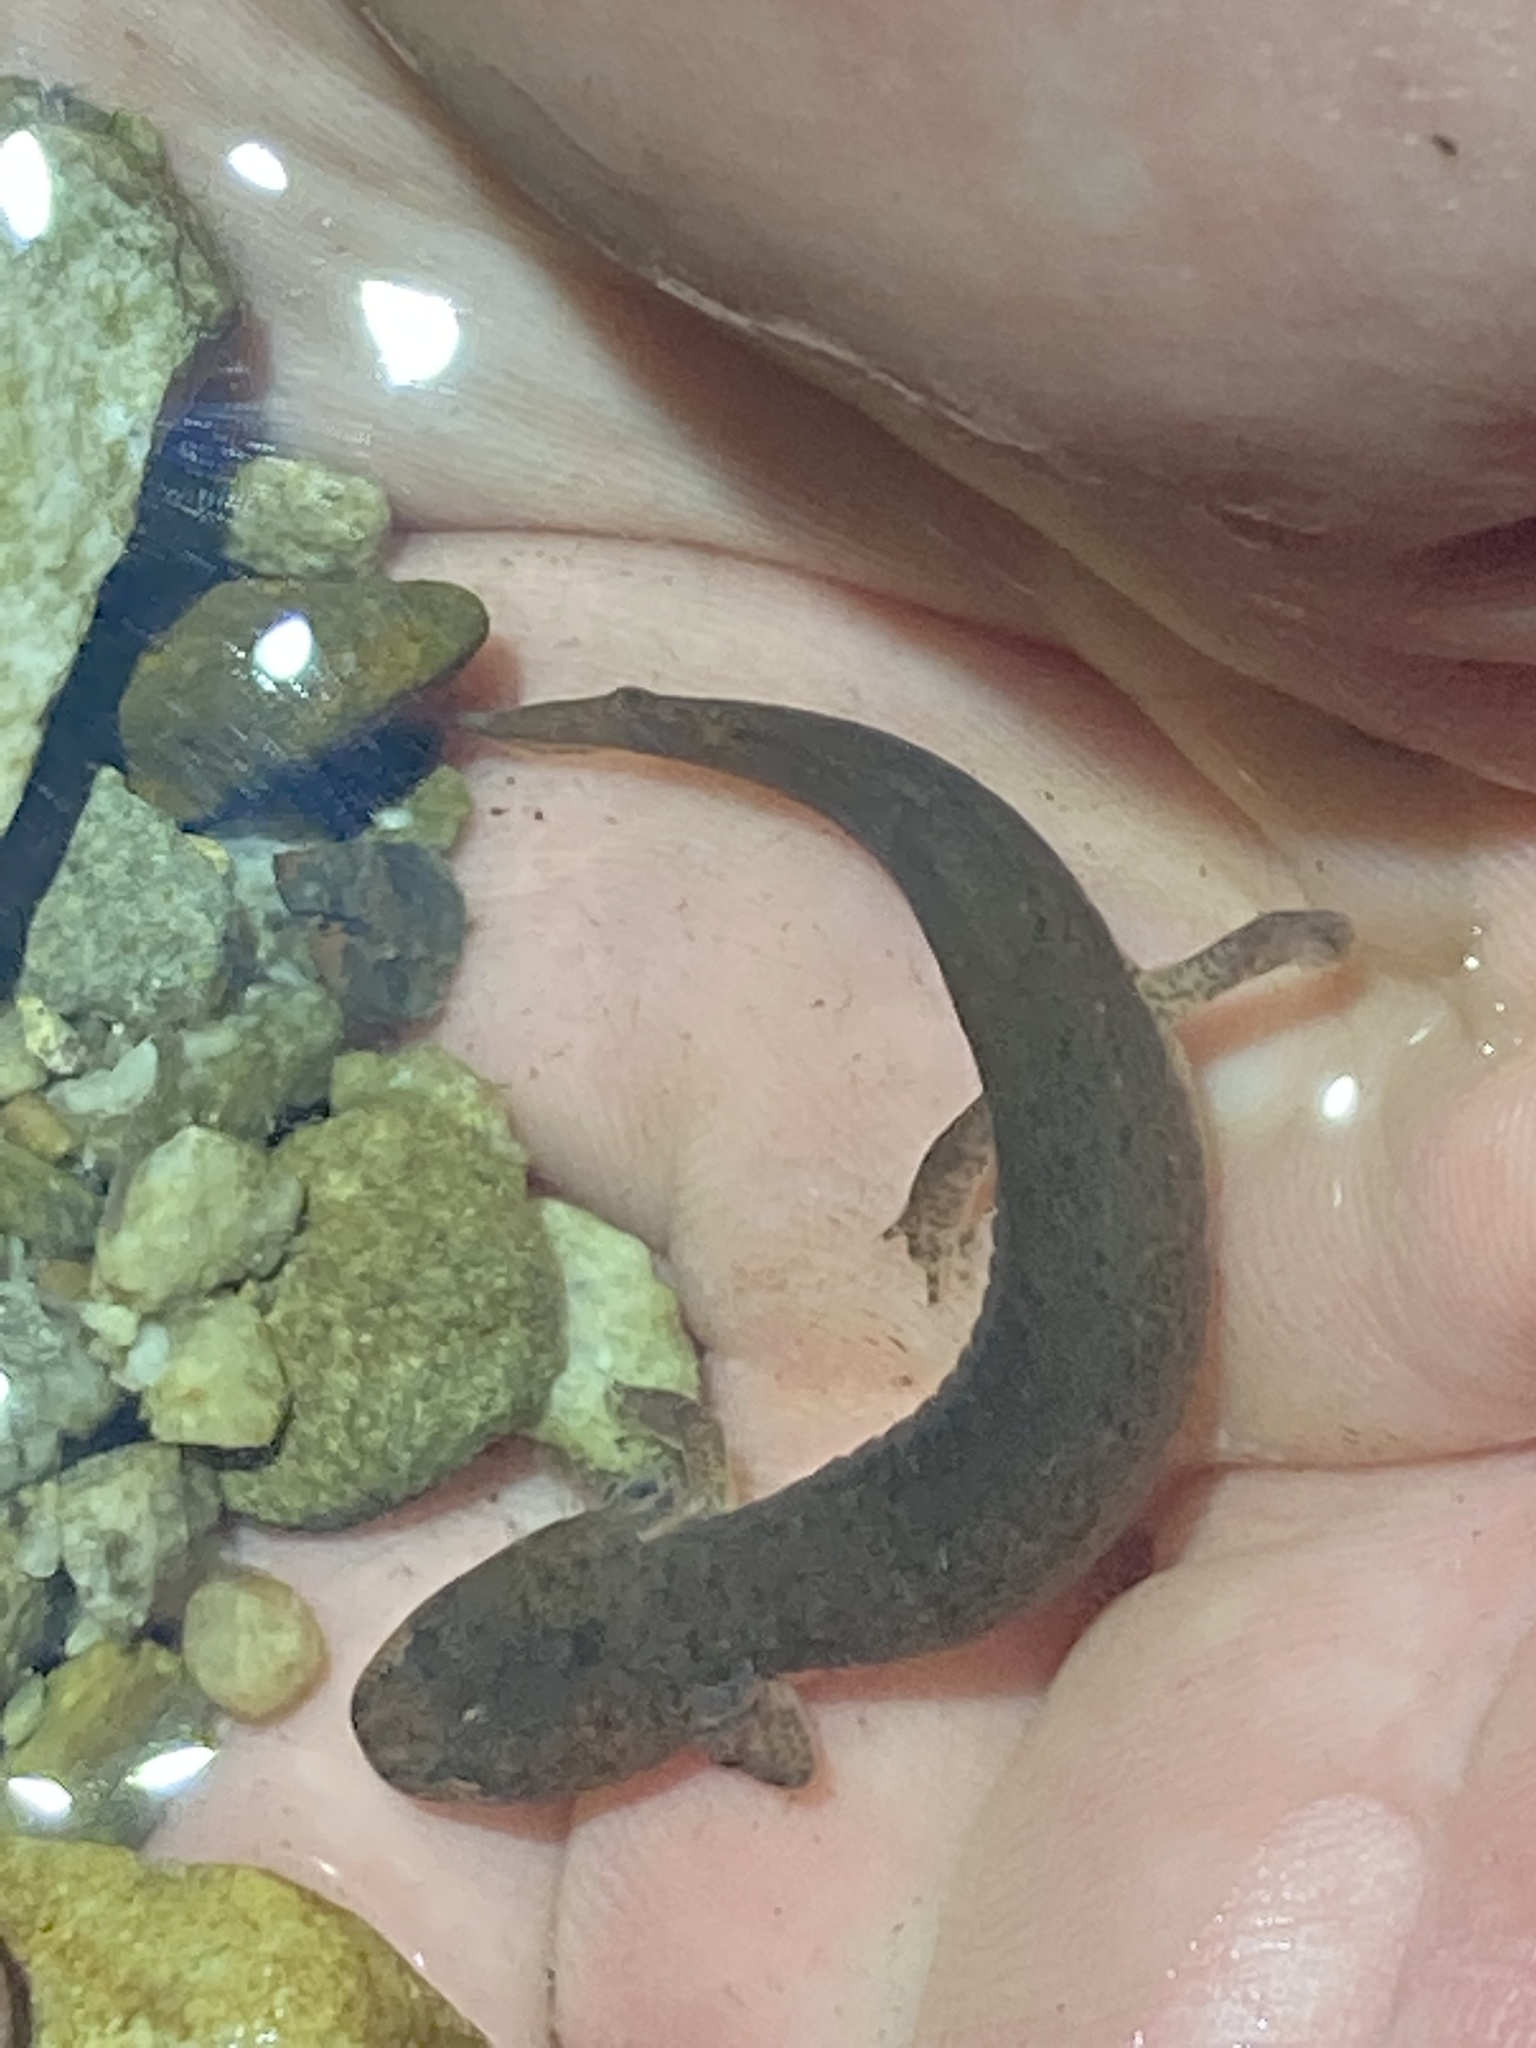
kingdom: Animalia
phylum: Chordata
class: Amphibia
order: Caudata
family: Plethodontidae
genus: Pseudotriton
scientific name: Pseudotriton ruber
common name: Red salamander
